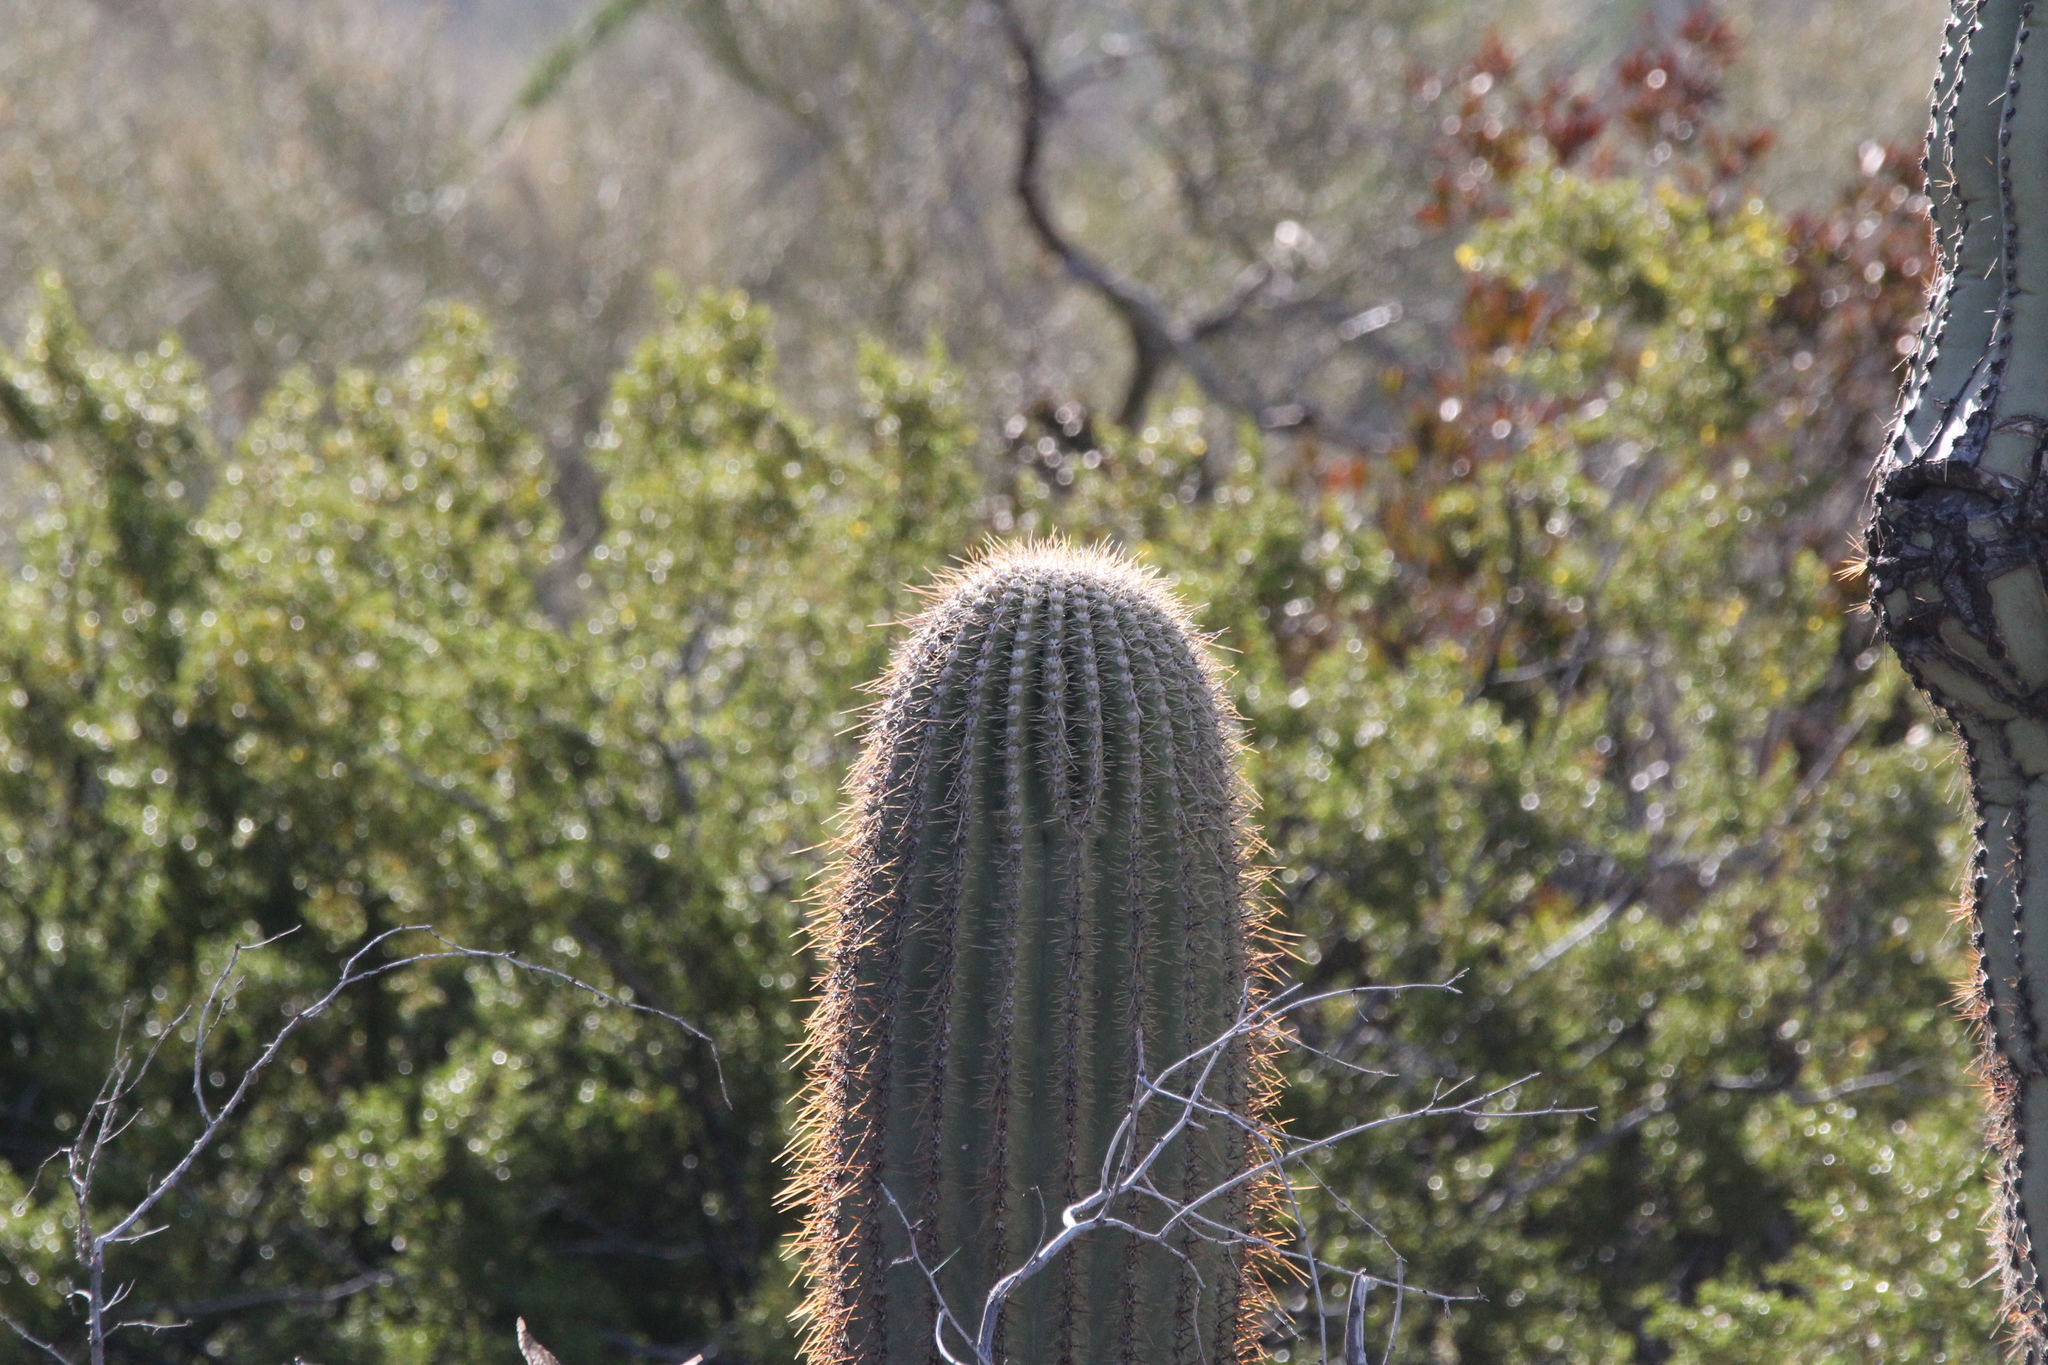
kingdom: Plantae
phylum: Tracheophyta
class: Magnoliopsida
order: Caryophyllales
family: Cactaceae
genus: Carnegiea
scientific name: Carnegiea gigantea
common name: Saguaro
